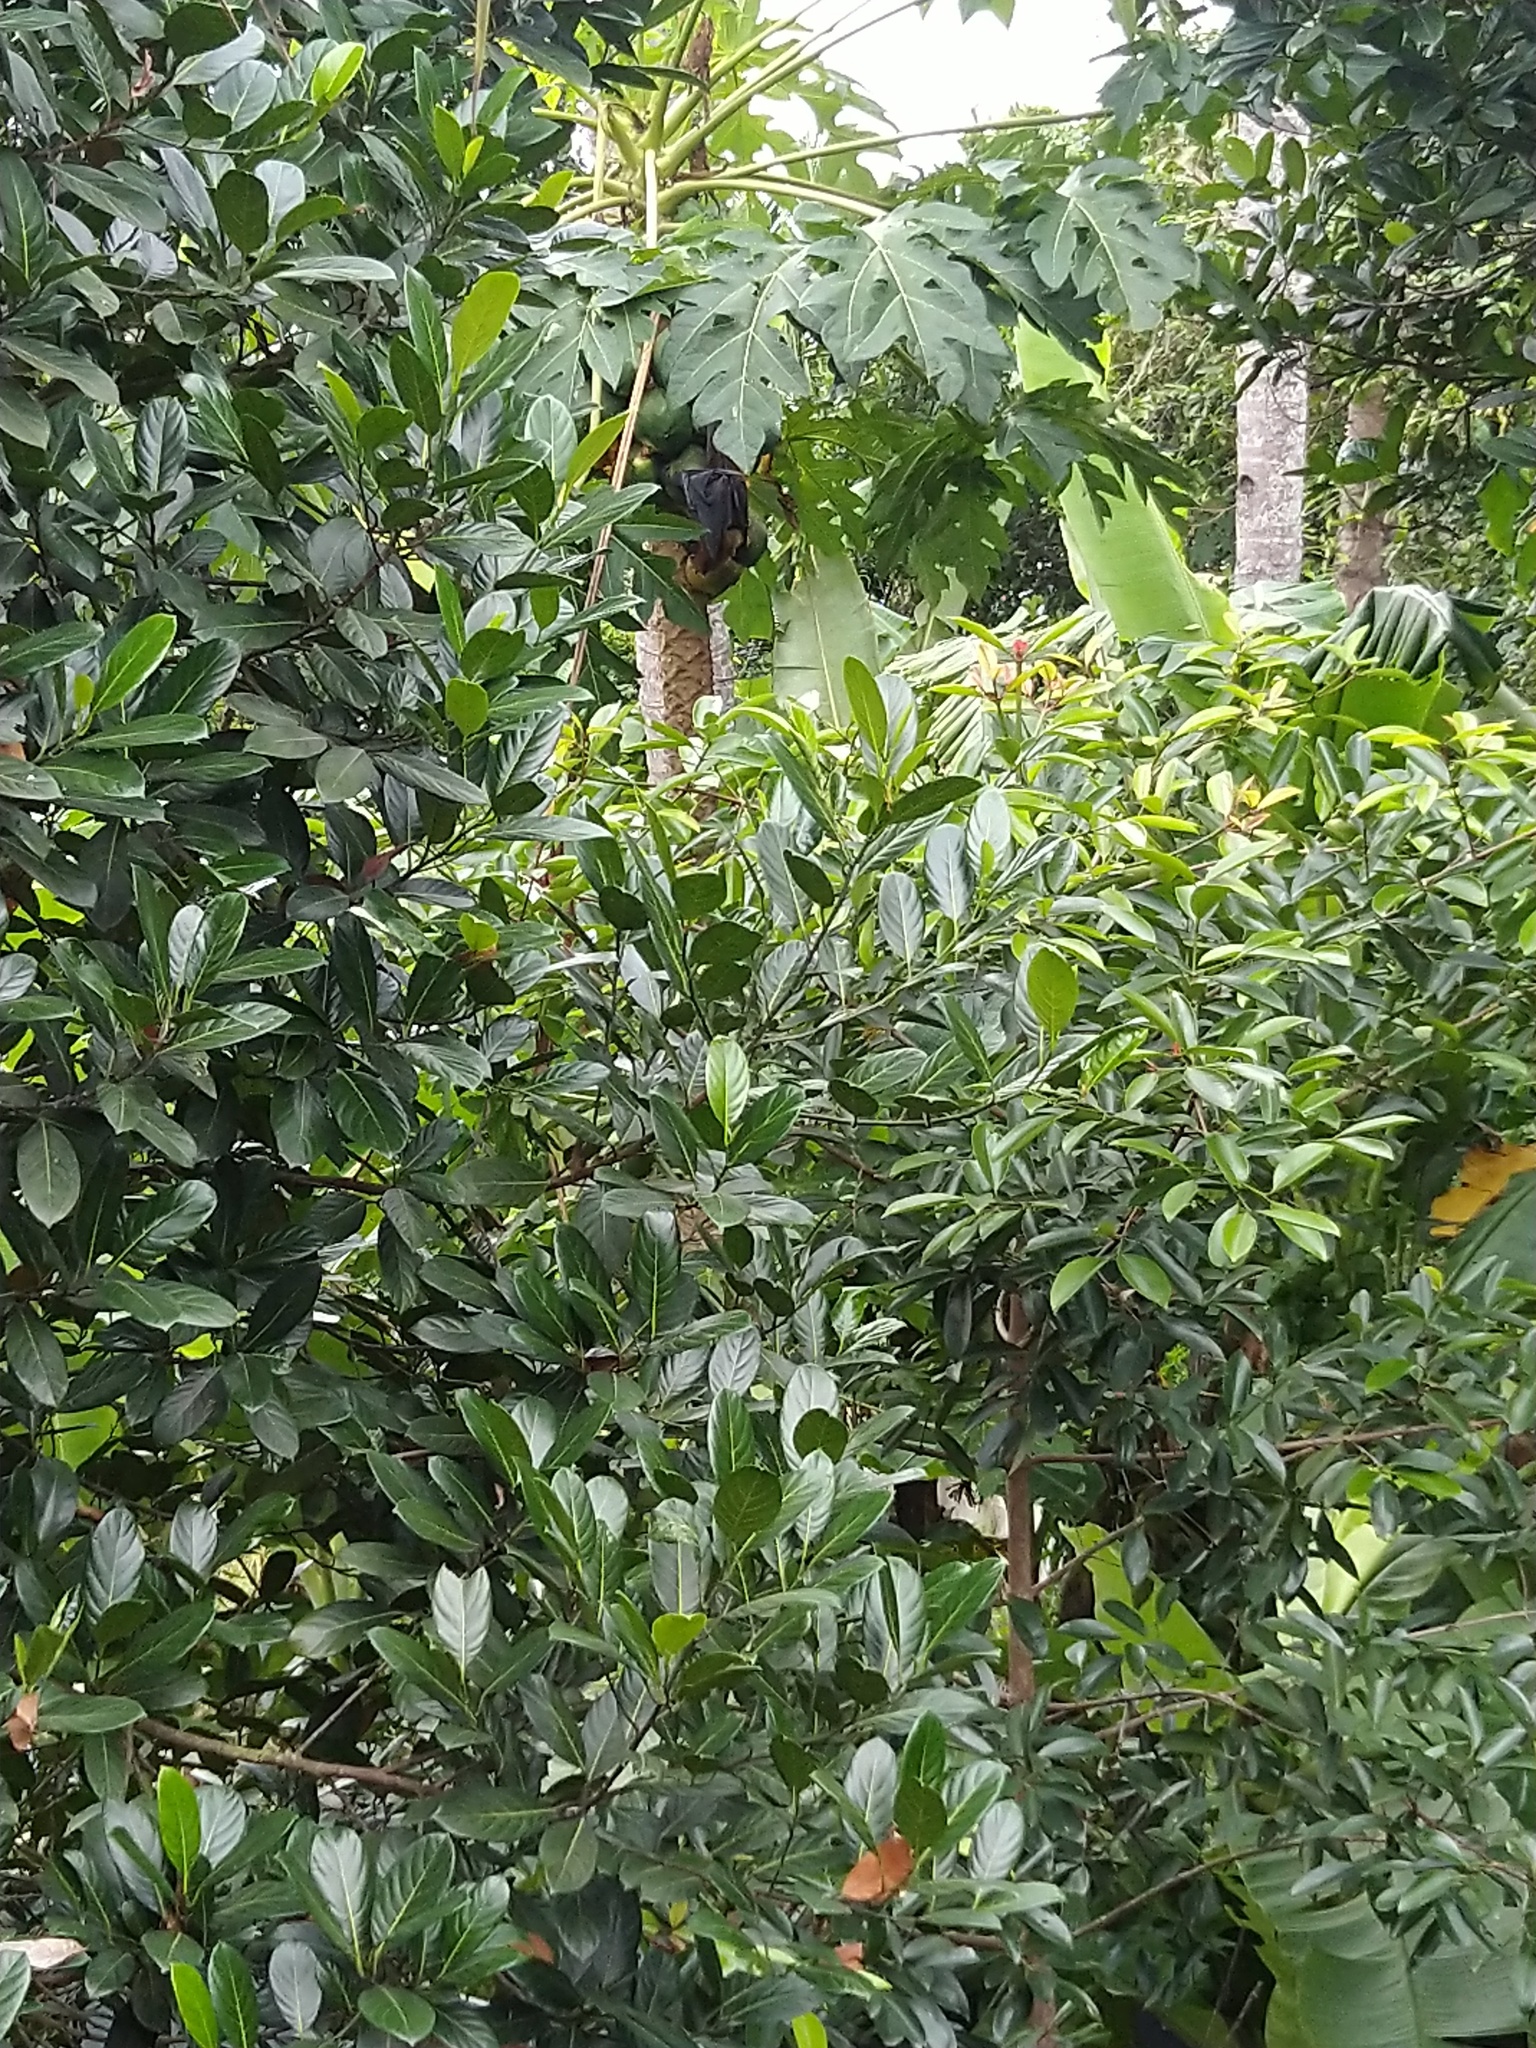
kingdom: Animalia
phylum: Chordata
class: Mammalia
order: Chiroptera
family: Pteropodidae
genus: Pteropus
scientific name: Pteropus vampyrus
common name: Large flying fox
